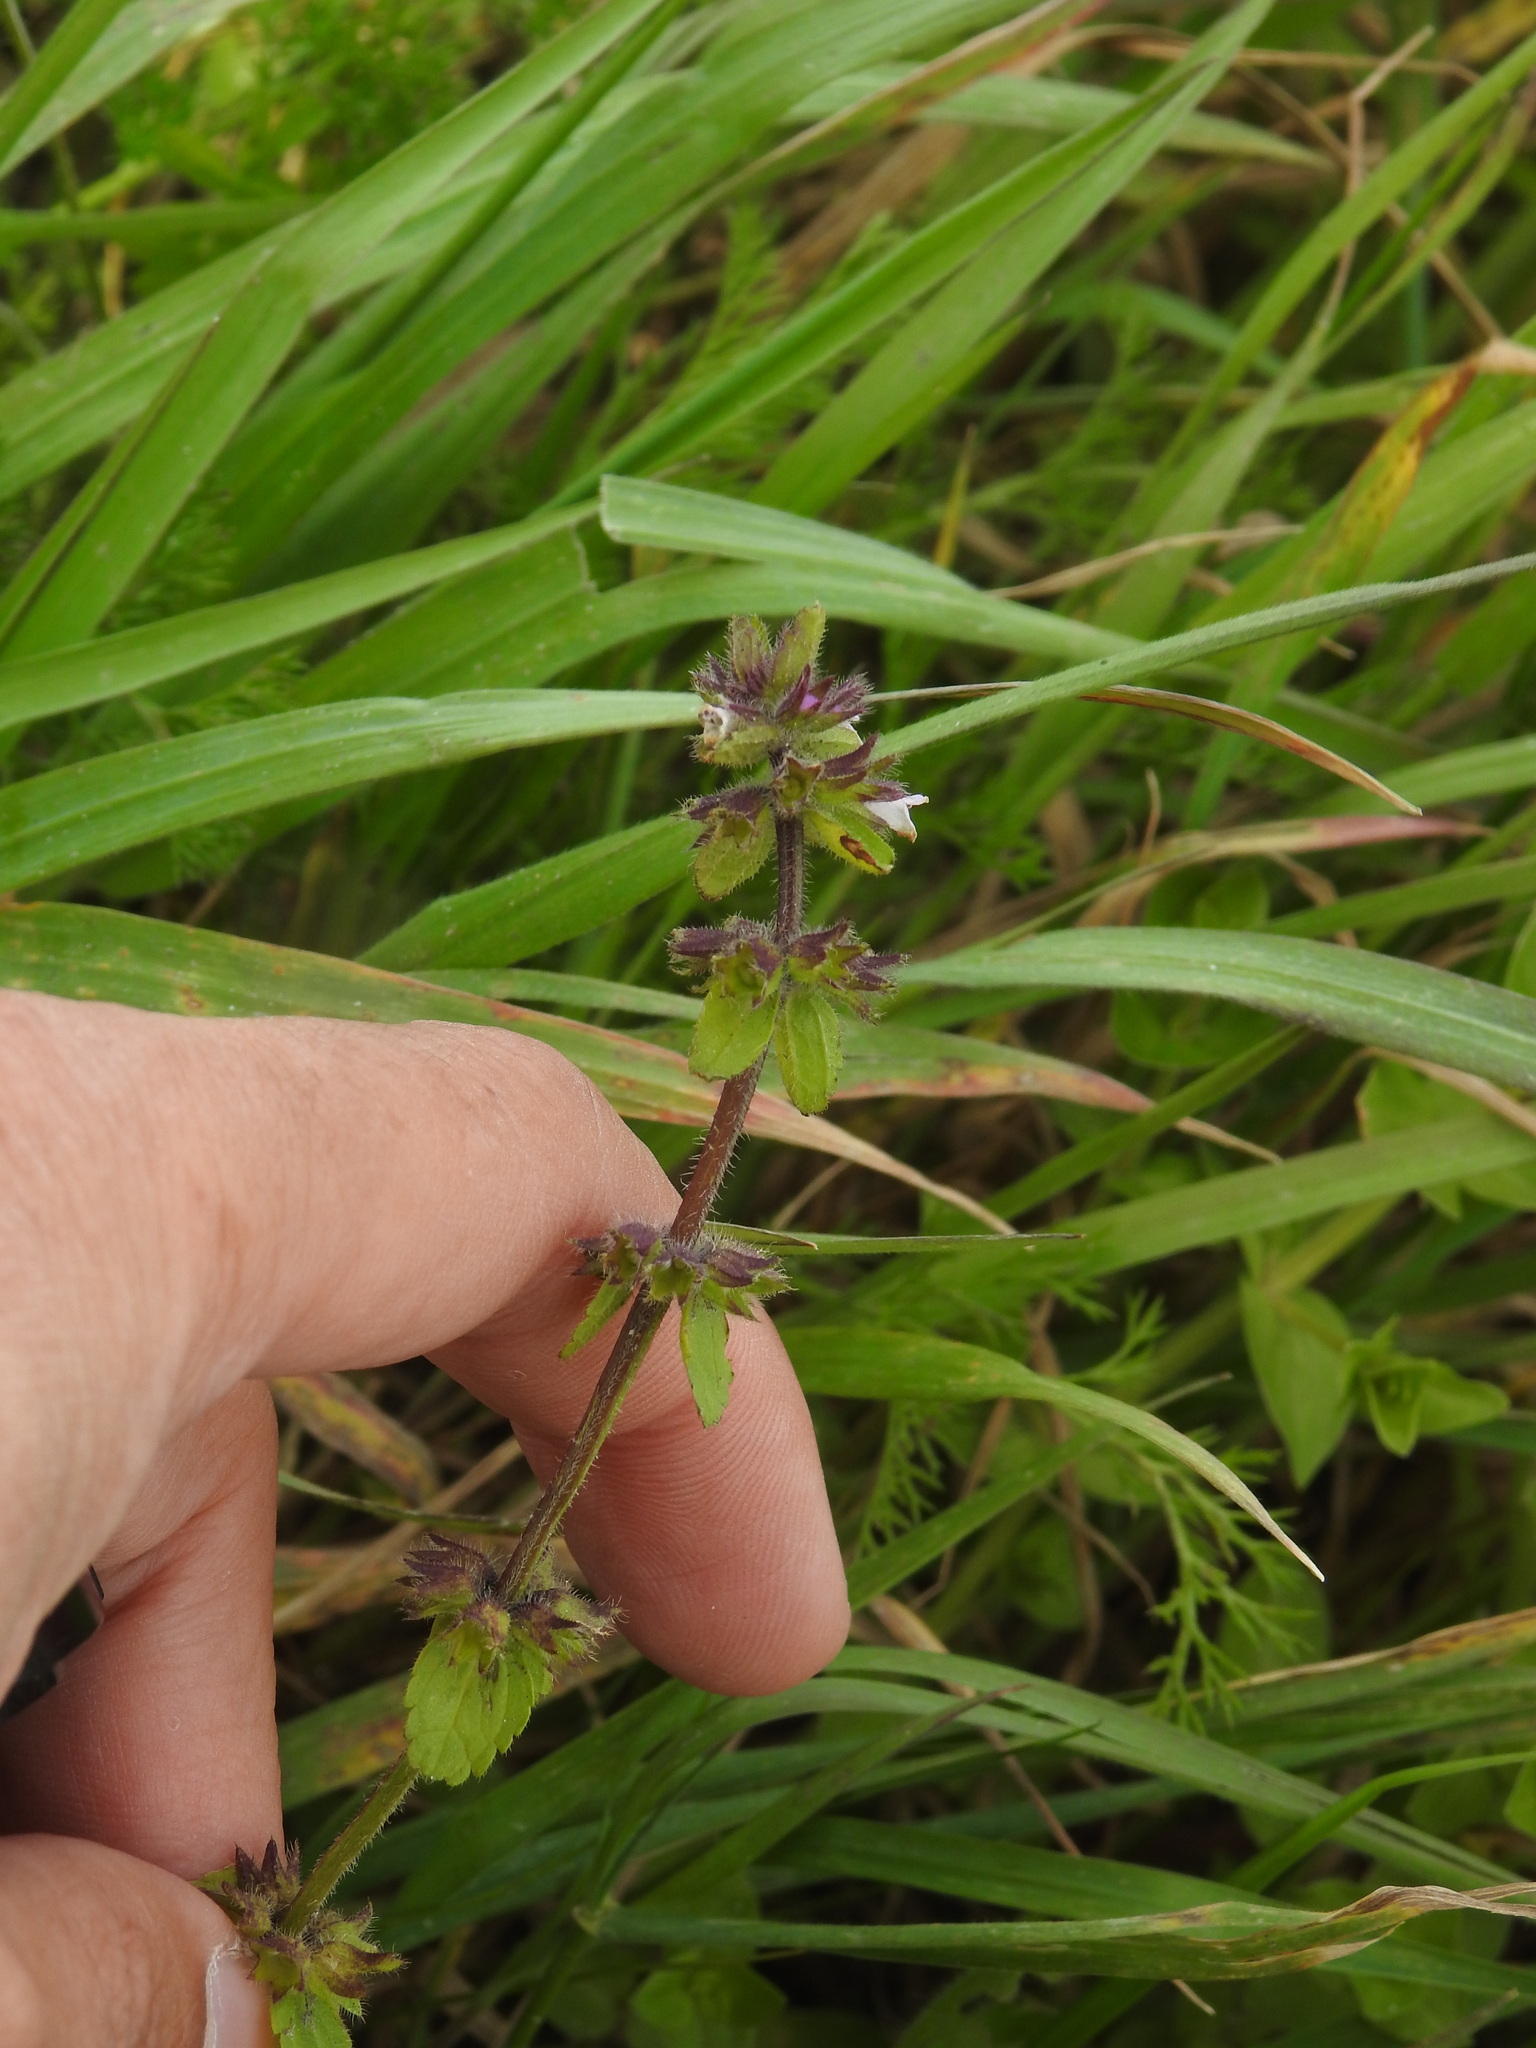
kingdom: Plantae
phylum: Tracheophyta
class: Magnoliopsida
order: Lamiales
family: Lamiaceae
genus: Stachys
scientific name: Stachys arvensis
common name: Field woundwort
